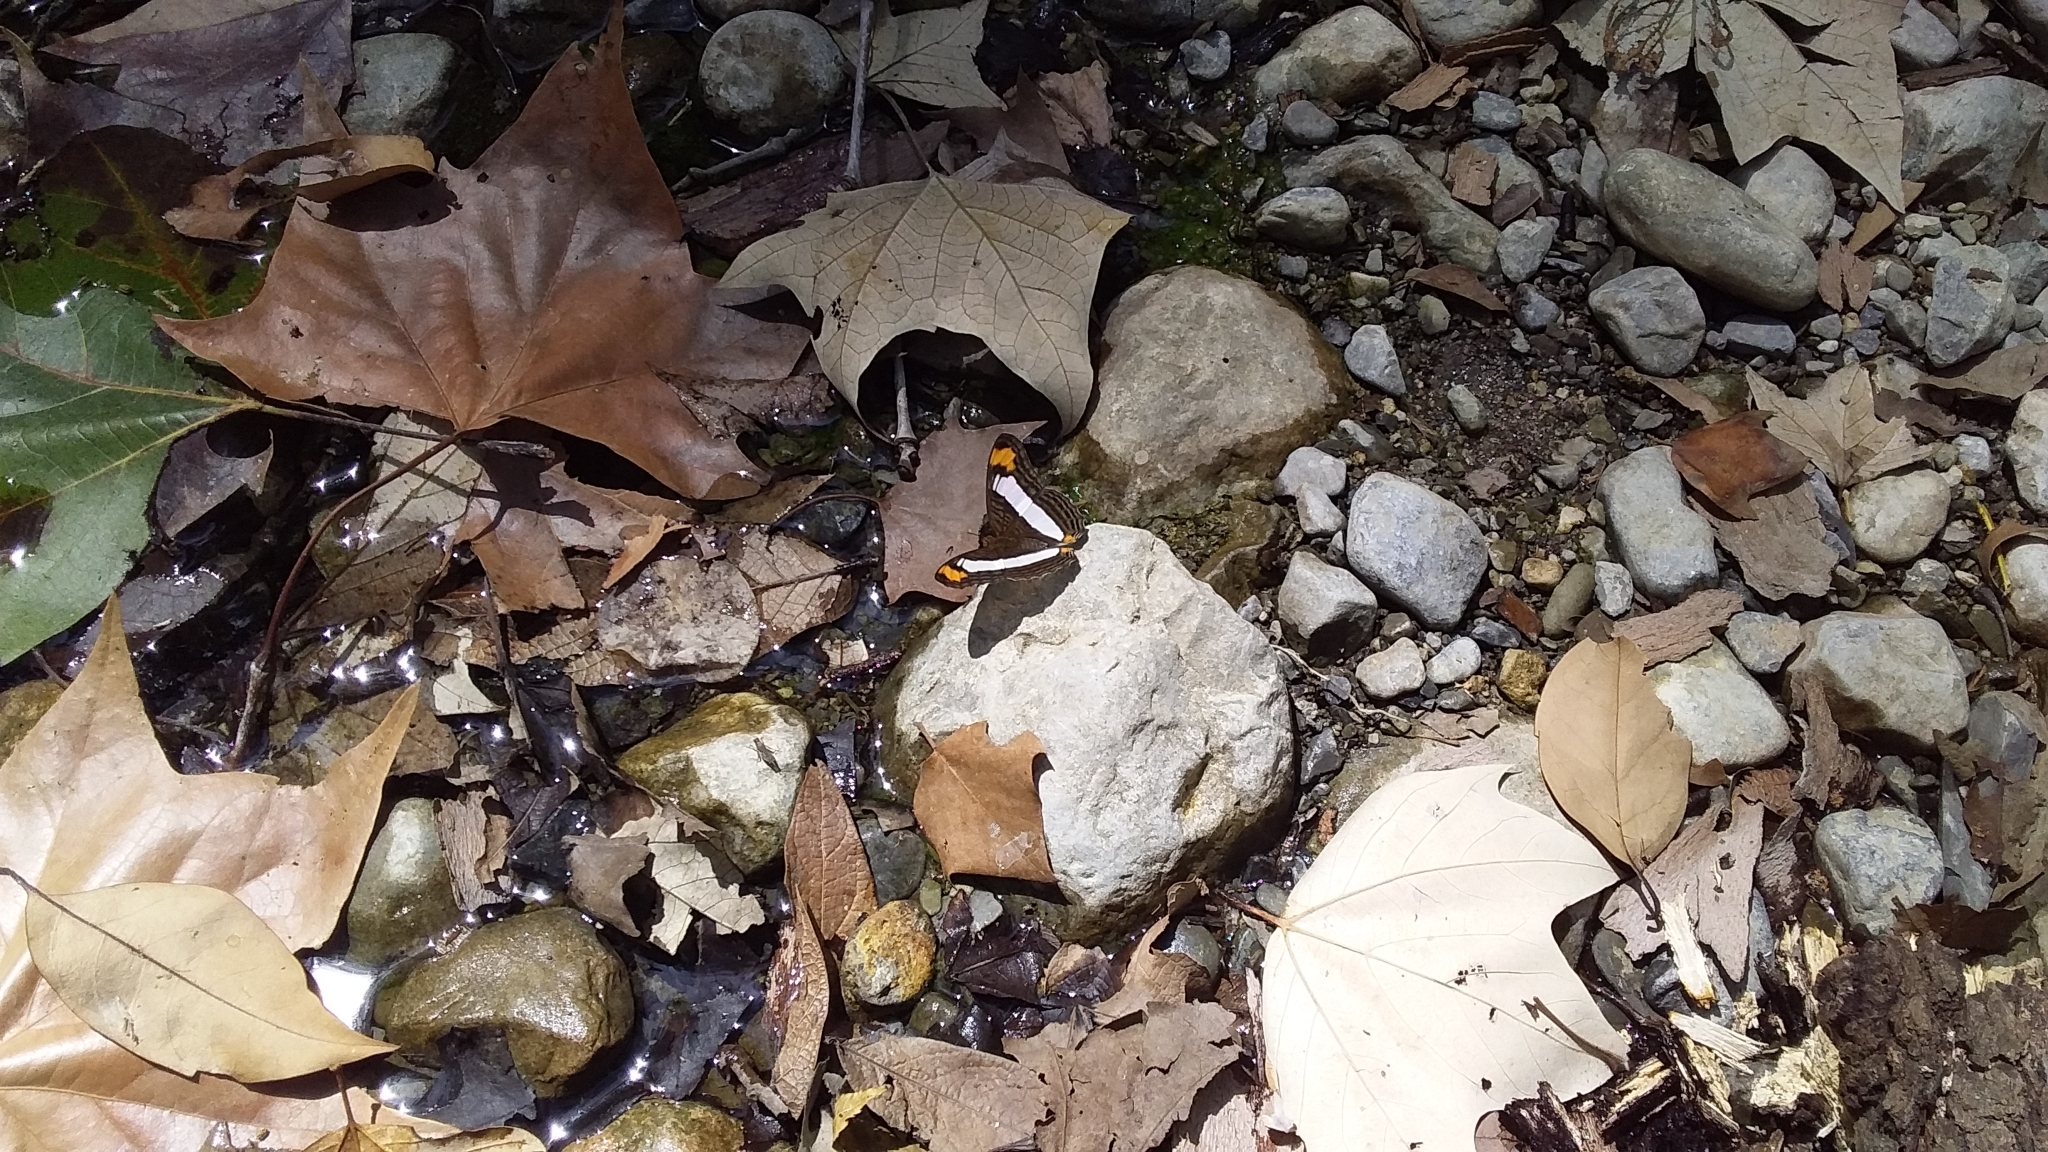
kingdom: Animalia
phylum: Arthropoda
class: Insecta
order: Lepidoptera
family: Nymphalidae
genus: Limenitis
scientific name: Limenitis Adelpha basiloides
